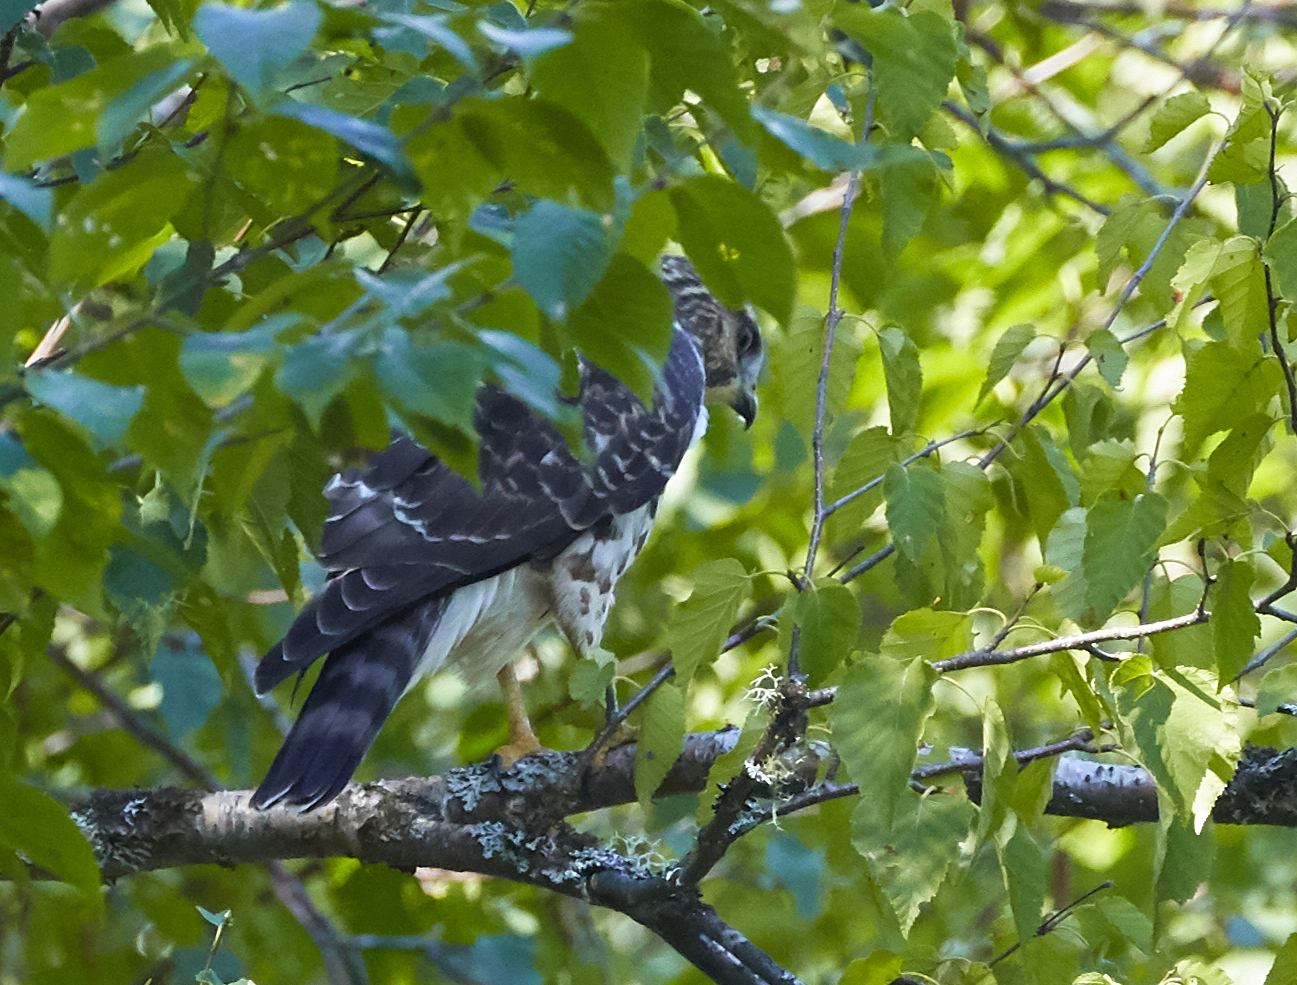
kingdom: Animalia
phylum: Chordata
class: Aves
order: Accipitriformes
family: Accipitridae
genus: Buteo
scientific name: Buteo platypterus
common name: Broad-winged hawk
